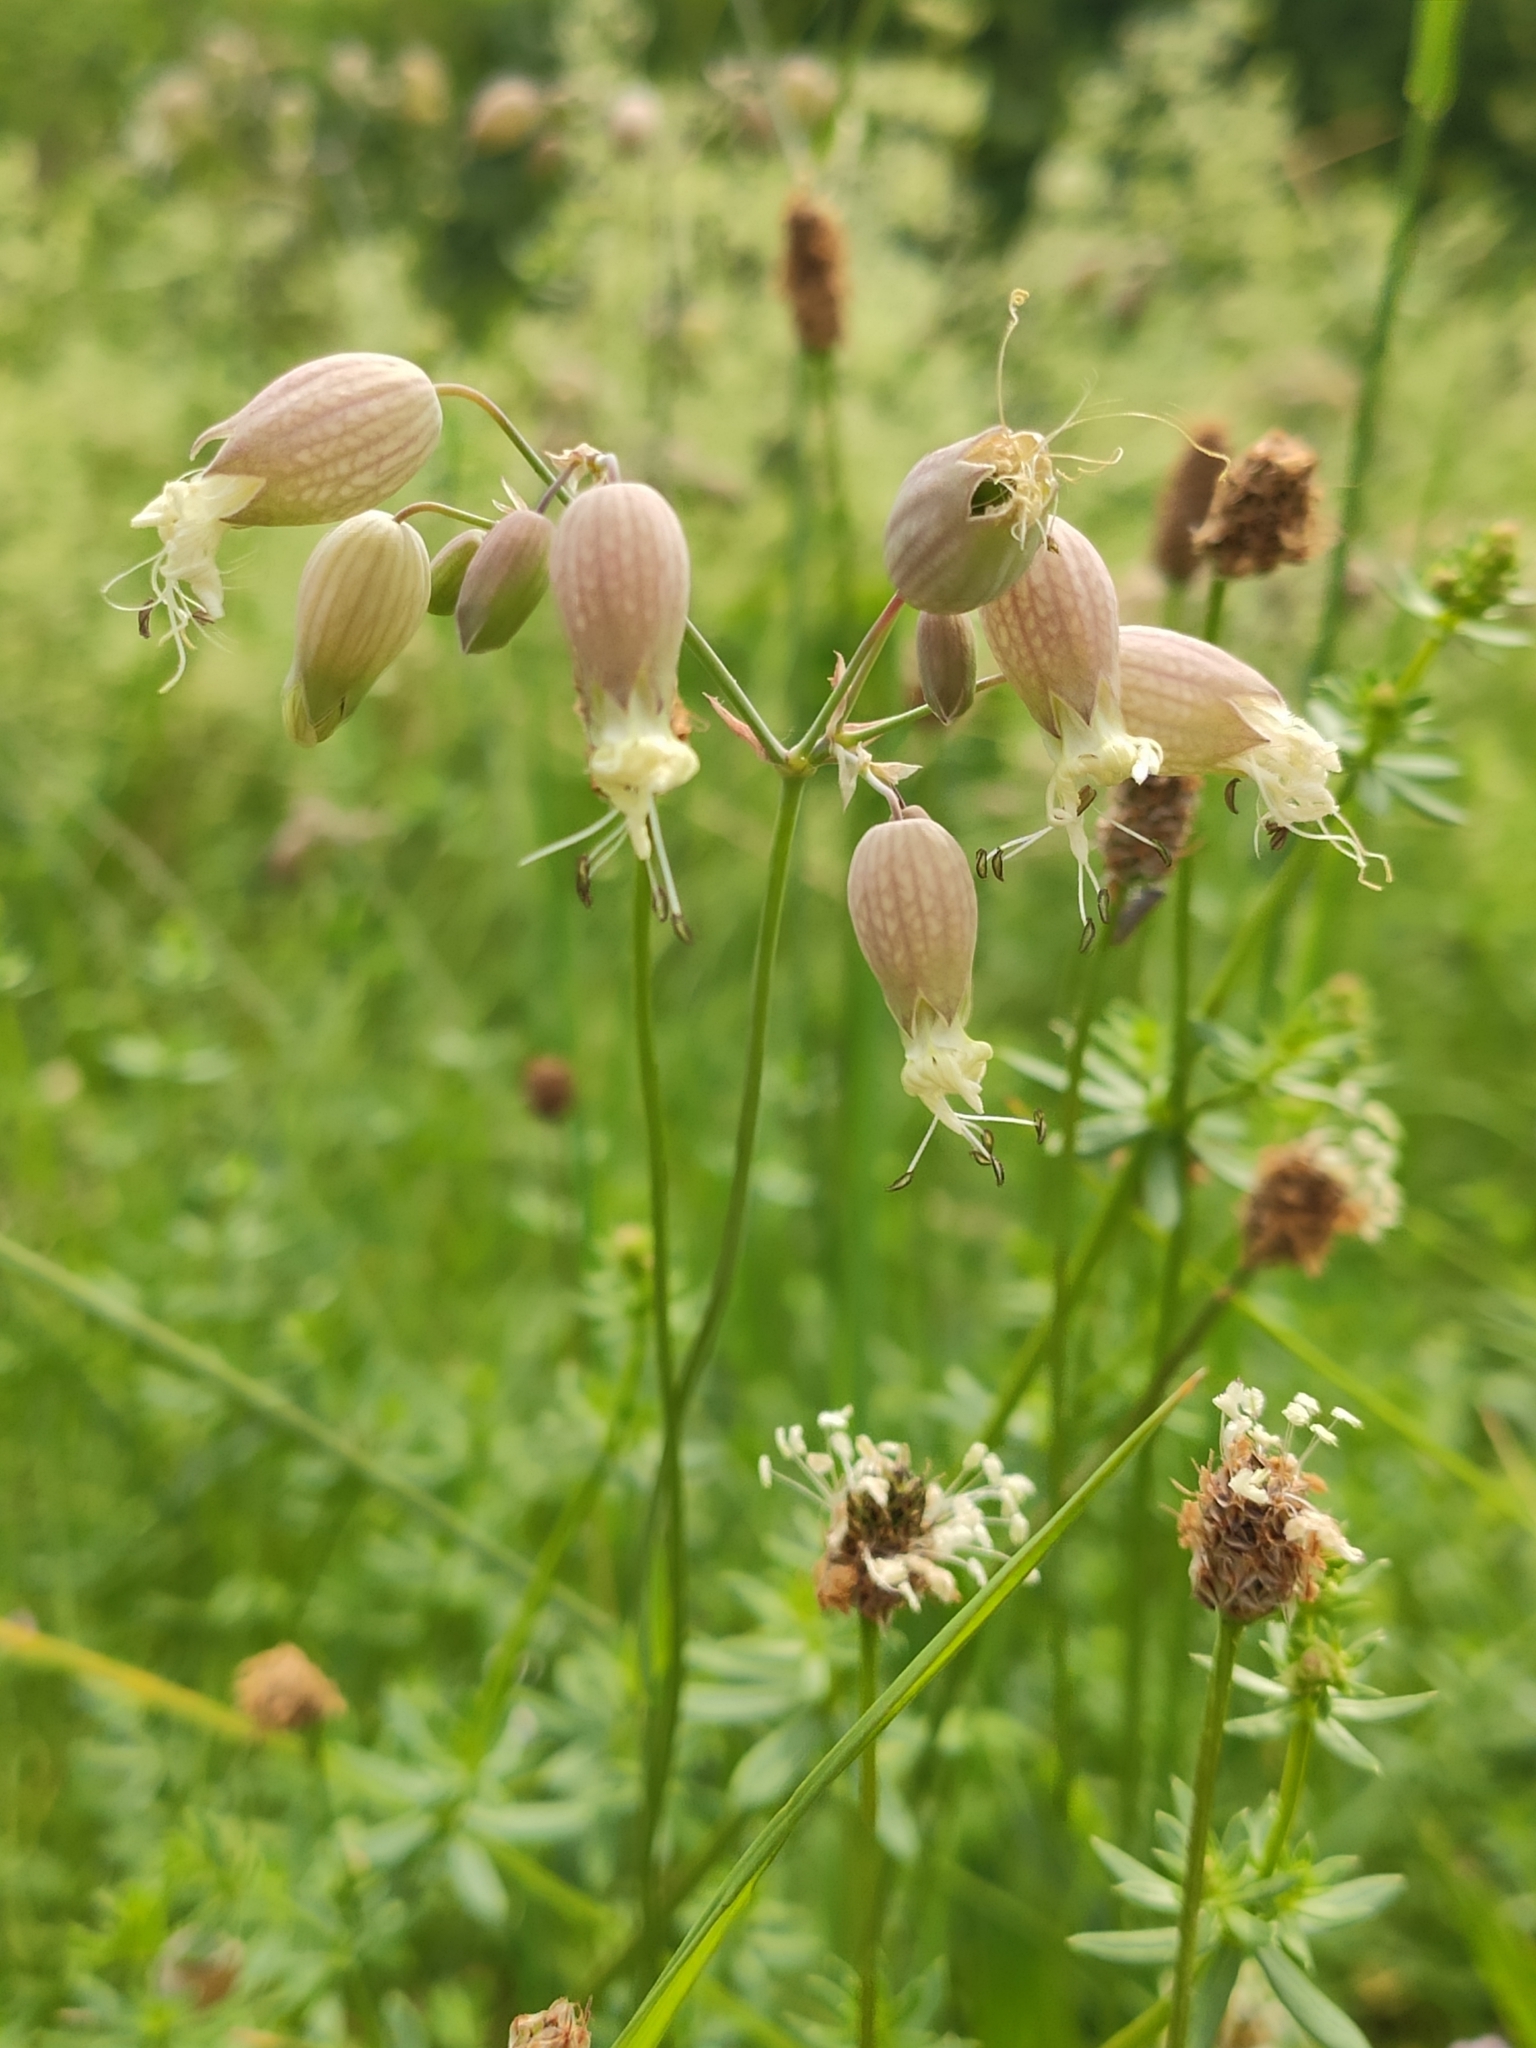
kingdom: Plantae
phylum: Tracheophyta
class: Magnoliopsida
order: Caryophyllales
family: Caryophyllaceae
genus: Silene
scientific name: Silene vulgaris
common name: Bladder campion
